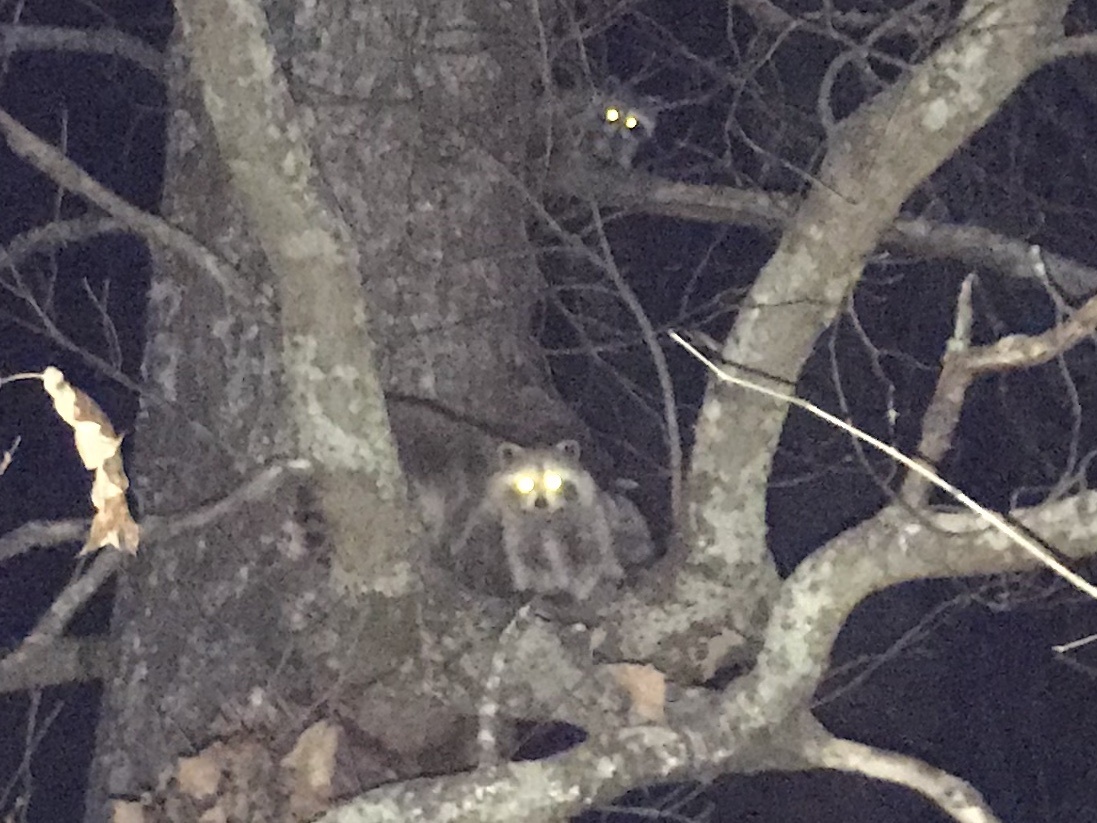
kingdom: Animalia
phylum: Chordata
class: Mammalia
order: Carnivora
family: Procyonidae
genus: Procyon
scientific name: Procyon lotor
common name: Raccoon
